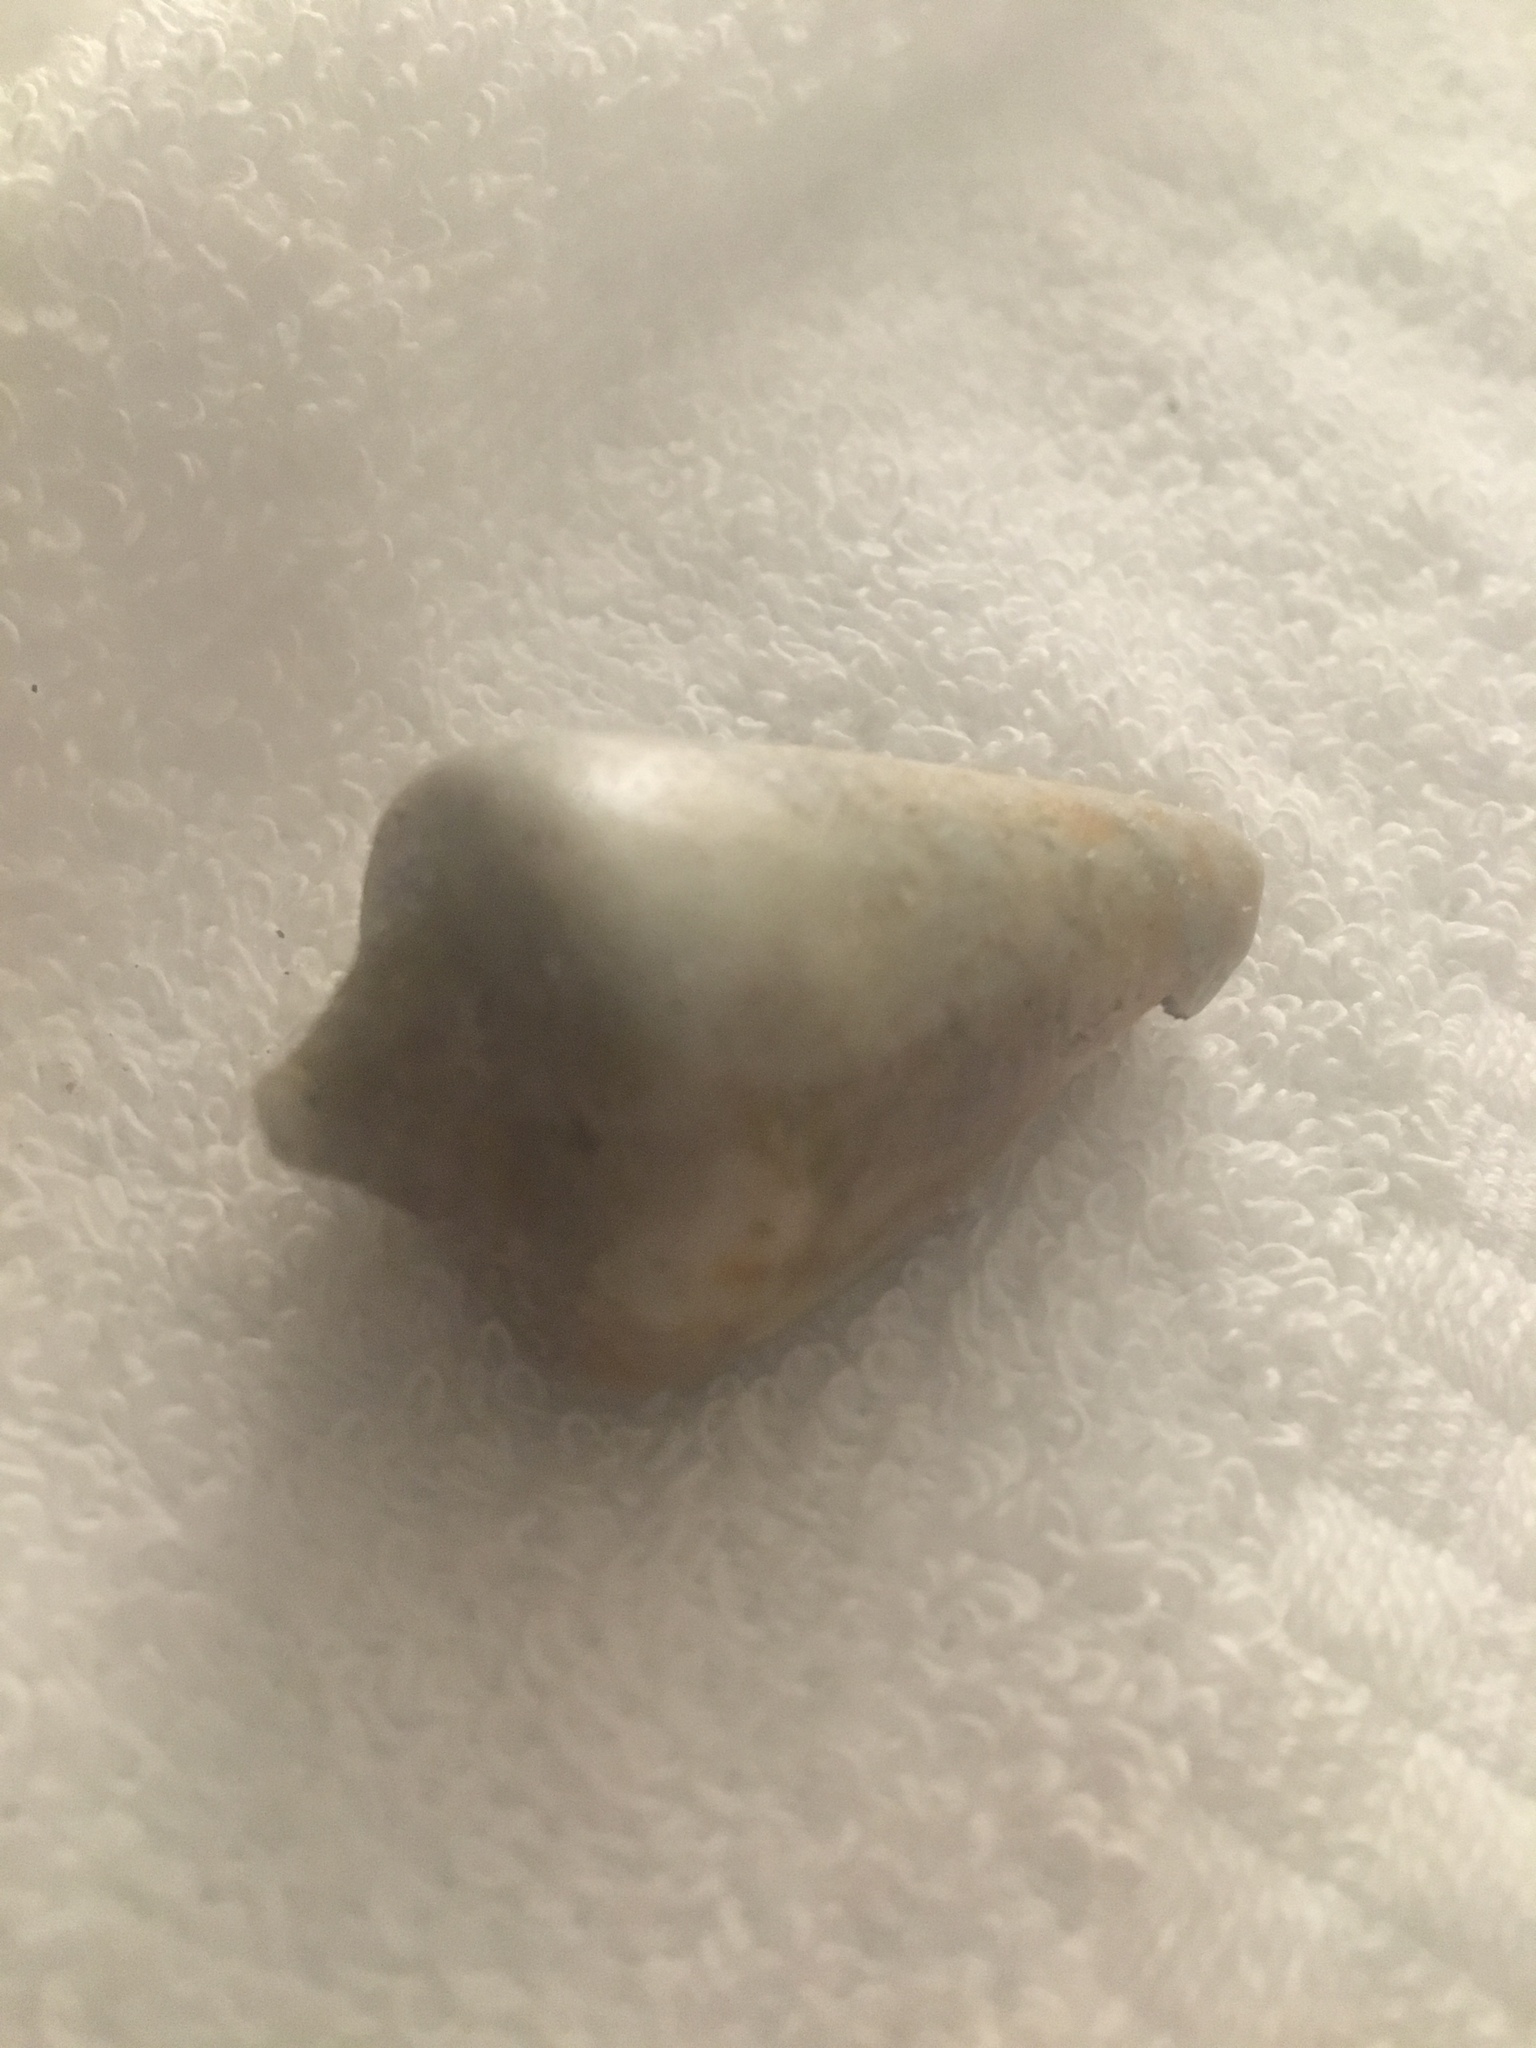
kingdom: Animalia
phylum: Mollusca
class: Gastropoda
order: Neogastropoda
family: Conidae
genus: Conus
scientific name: Conus spurius
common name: Alphabet cone
